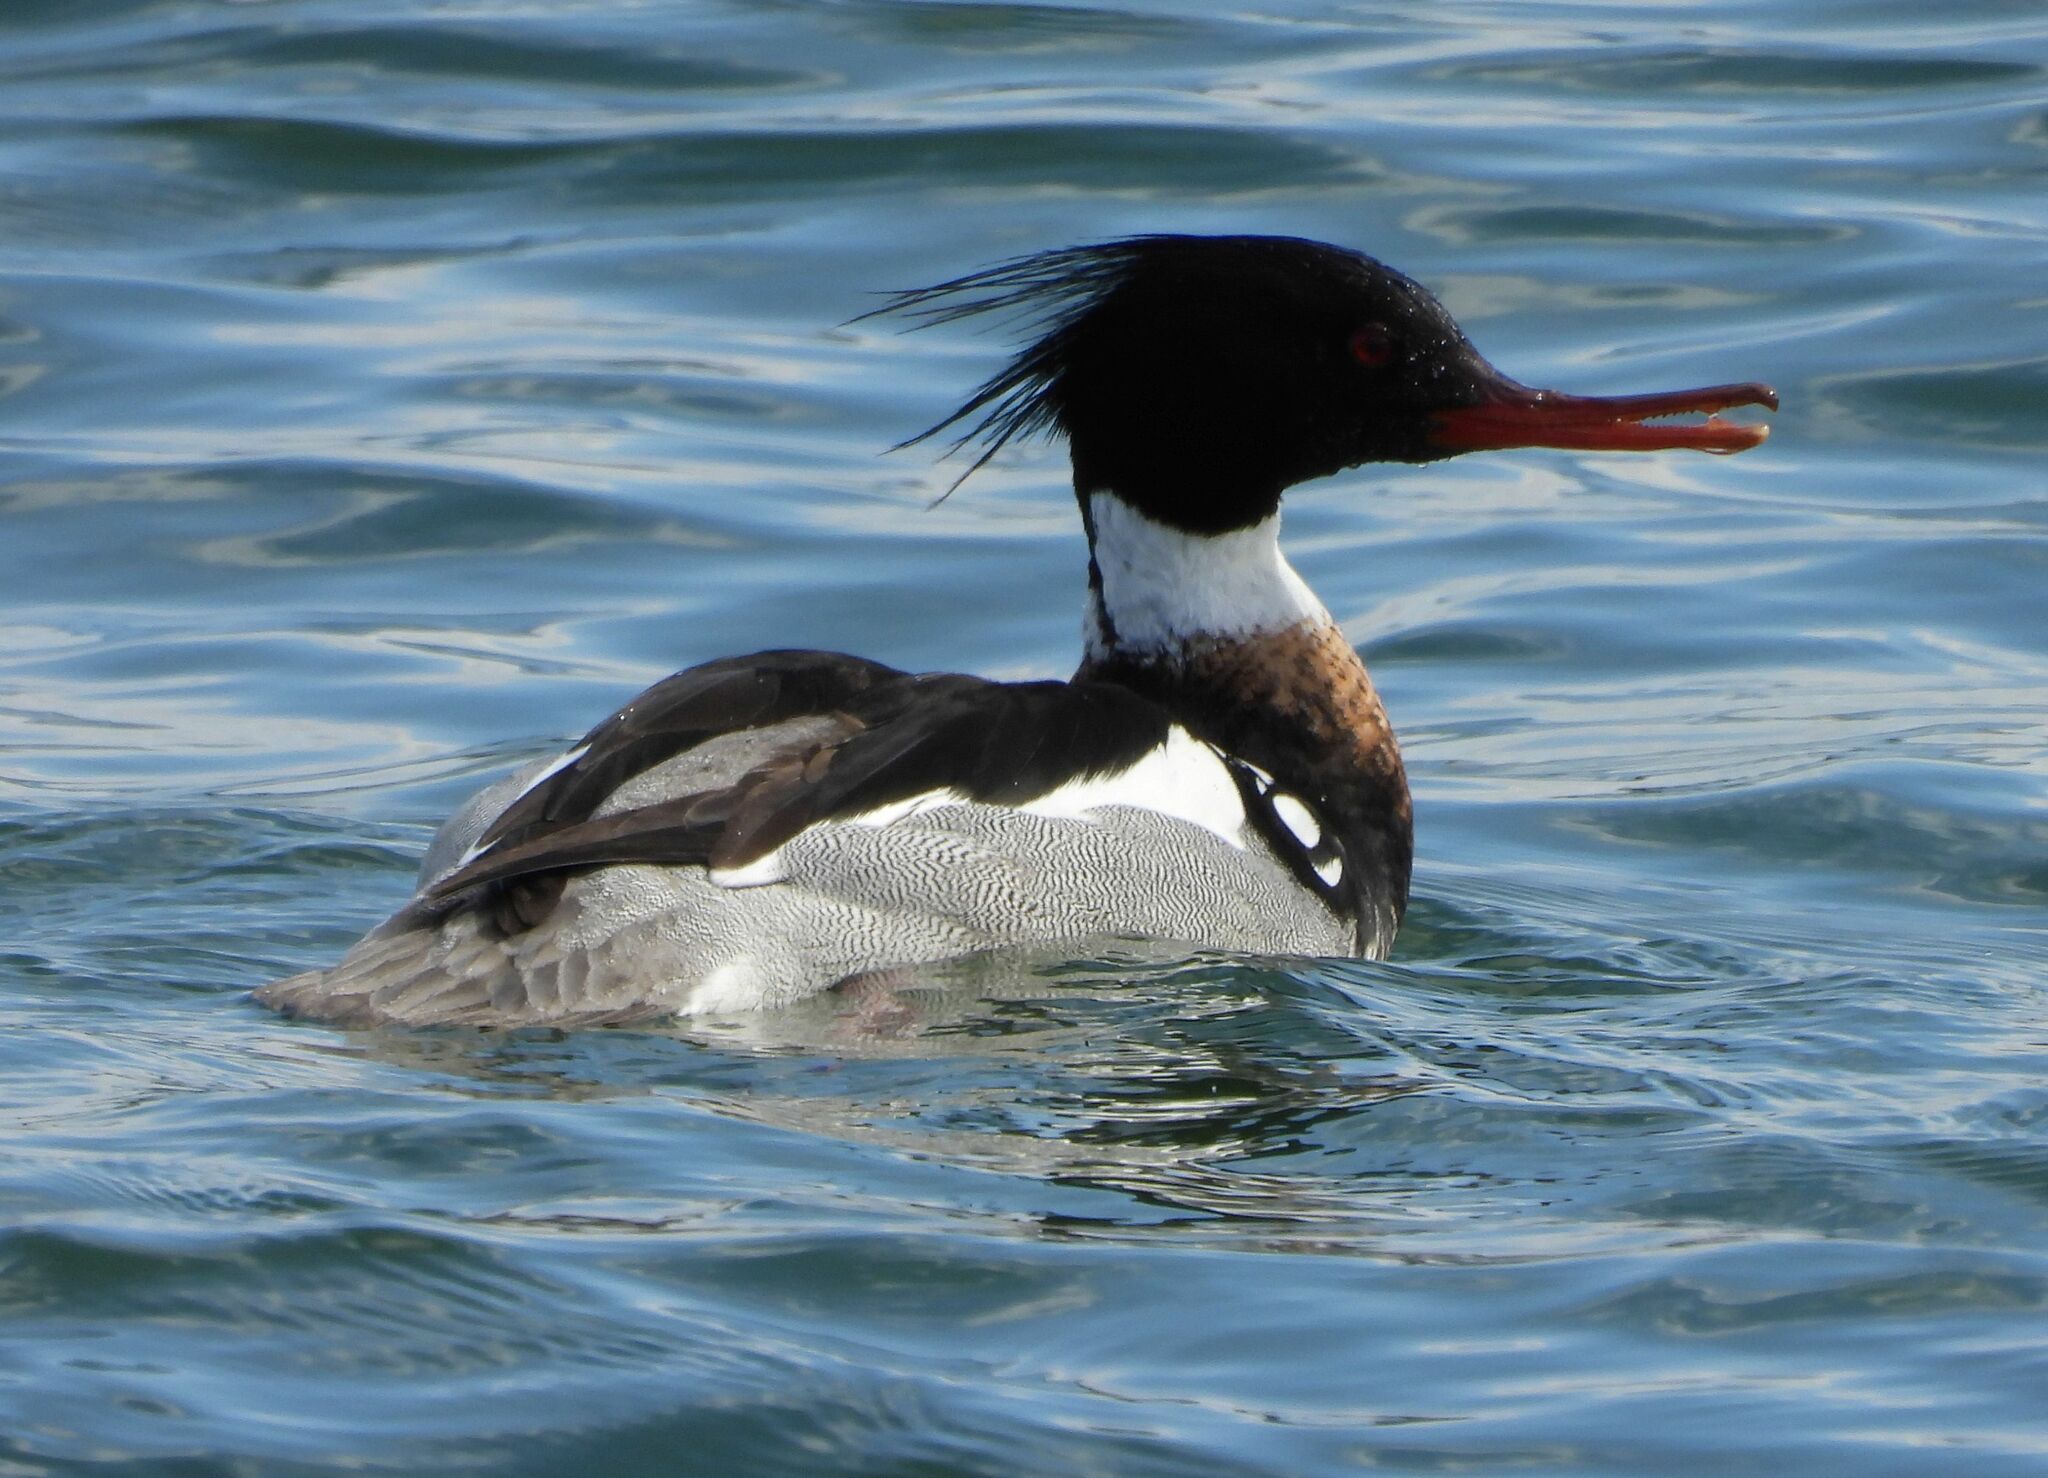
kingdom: Animalia
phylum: Chordata
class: Aves
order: Anseriformes
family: Anatidae
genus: Mergus
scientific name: Mergus serrator
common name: Red-breasted merganser
